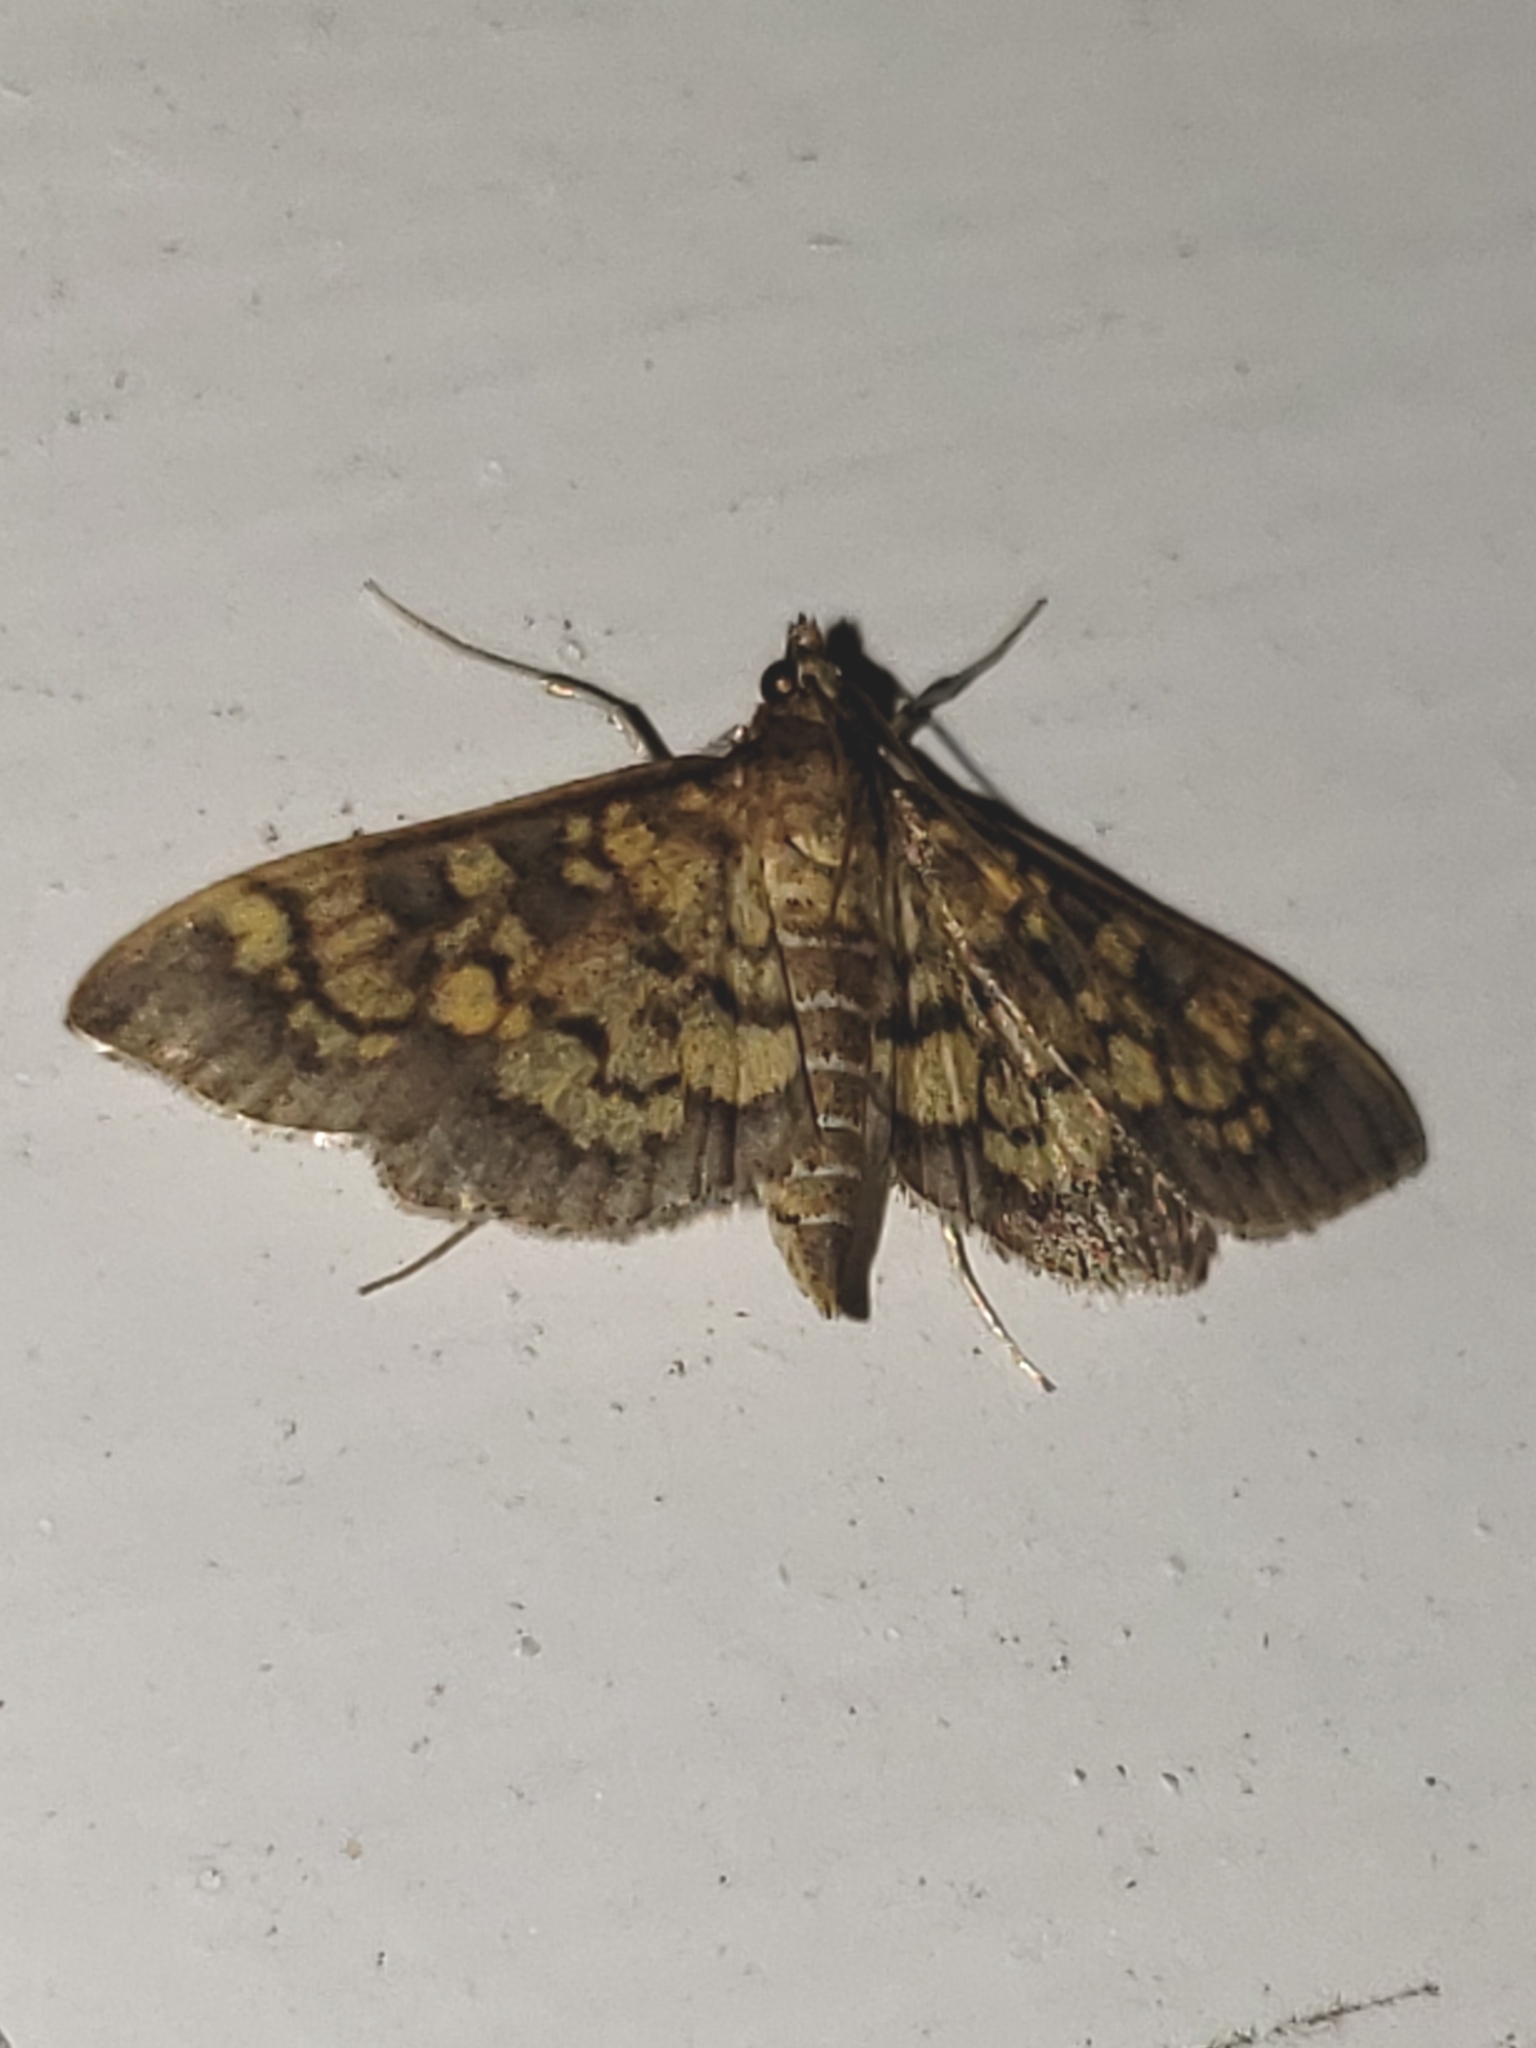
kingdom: Animalia
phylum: Arthropoda
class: Insecta
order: Lepidoptera
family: Crambidae
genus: Epipagis
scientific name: Epipagis adipaloides
